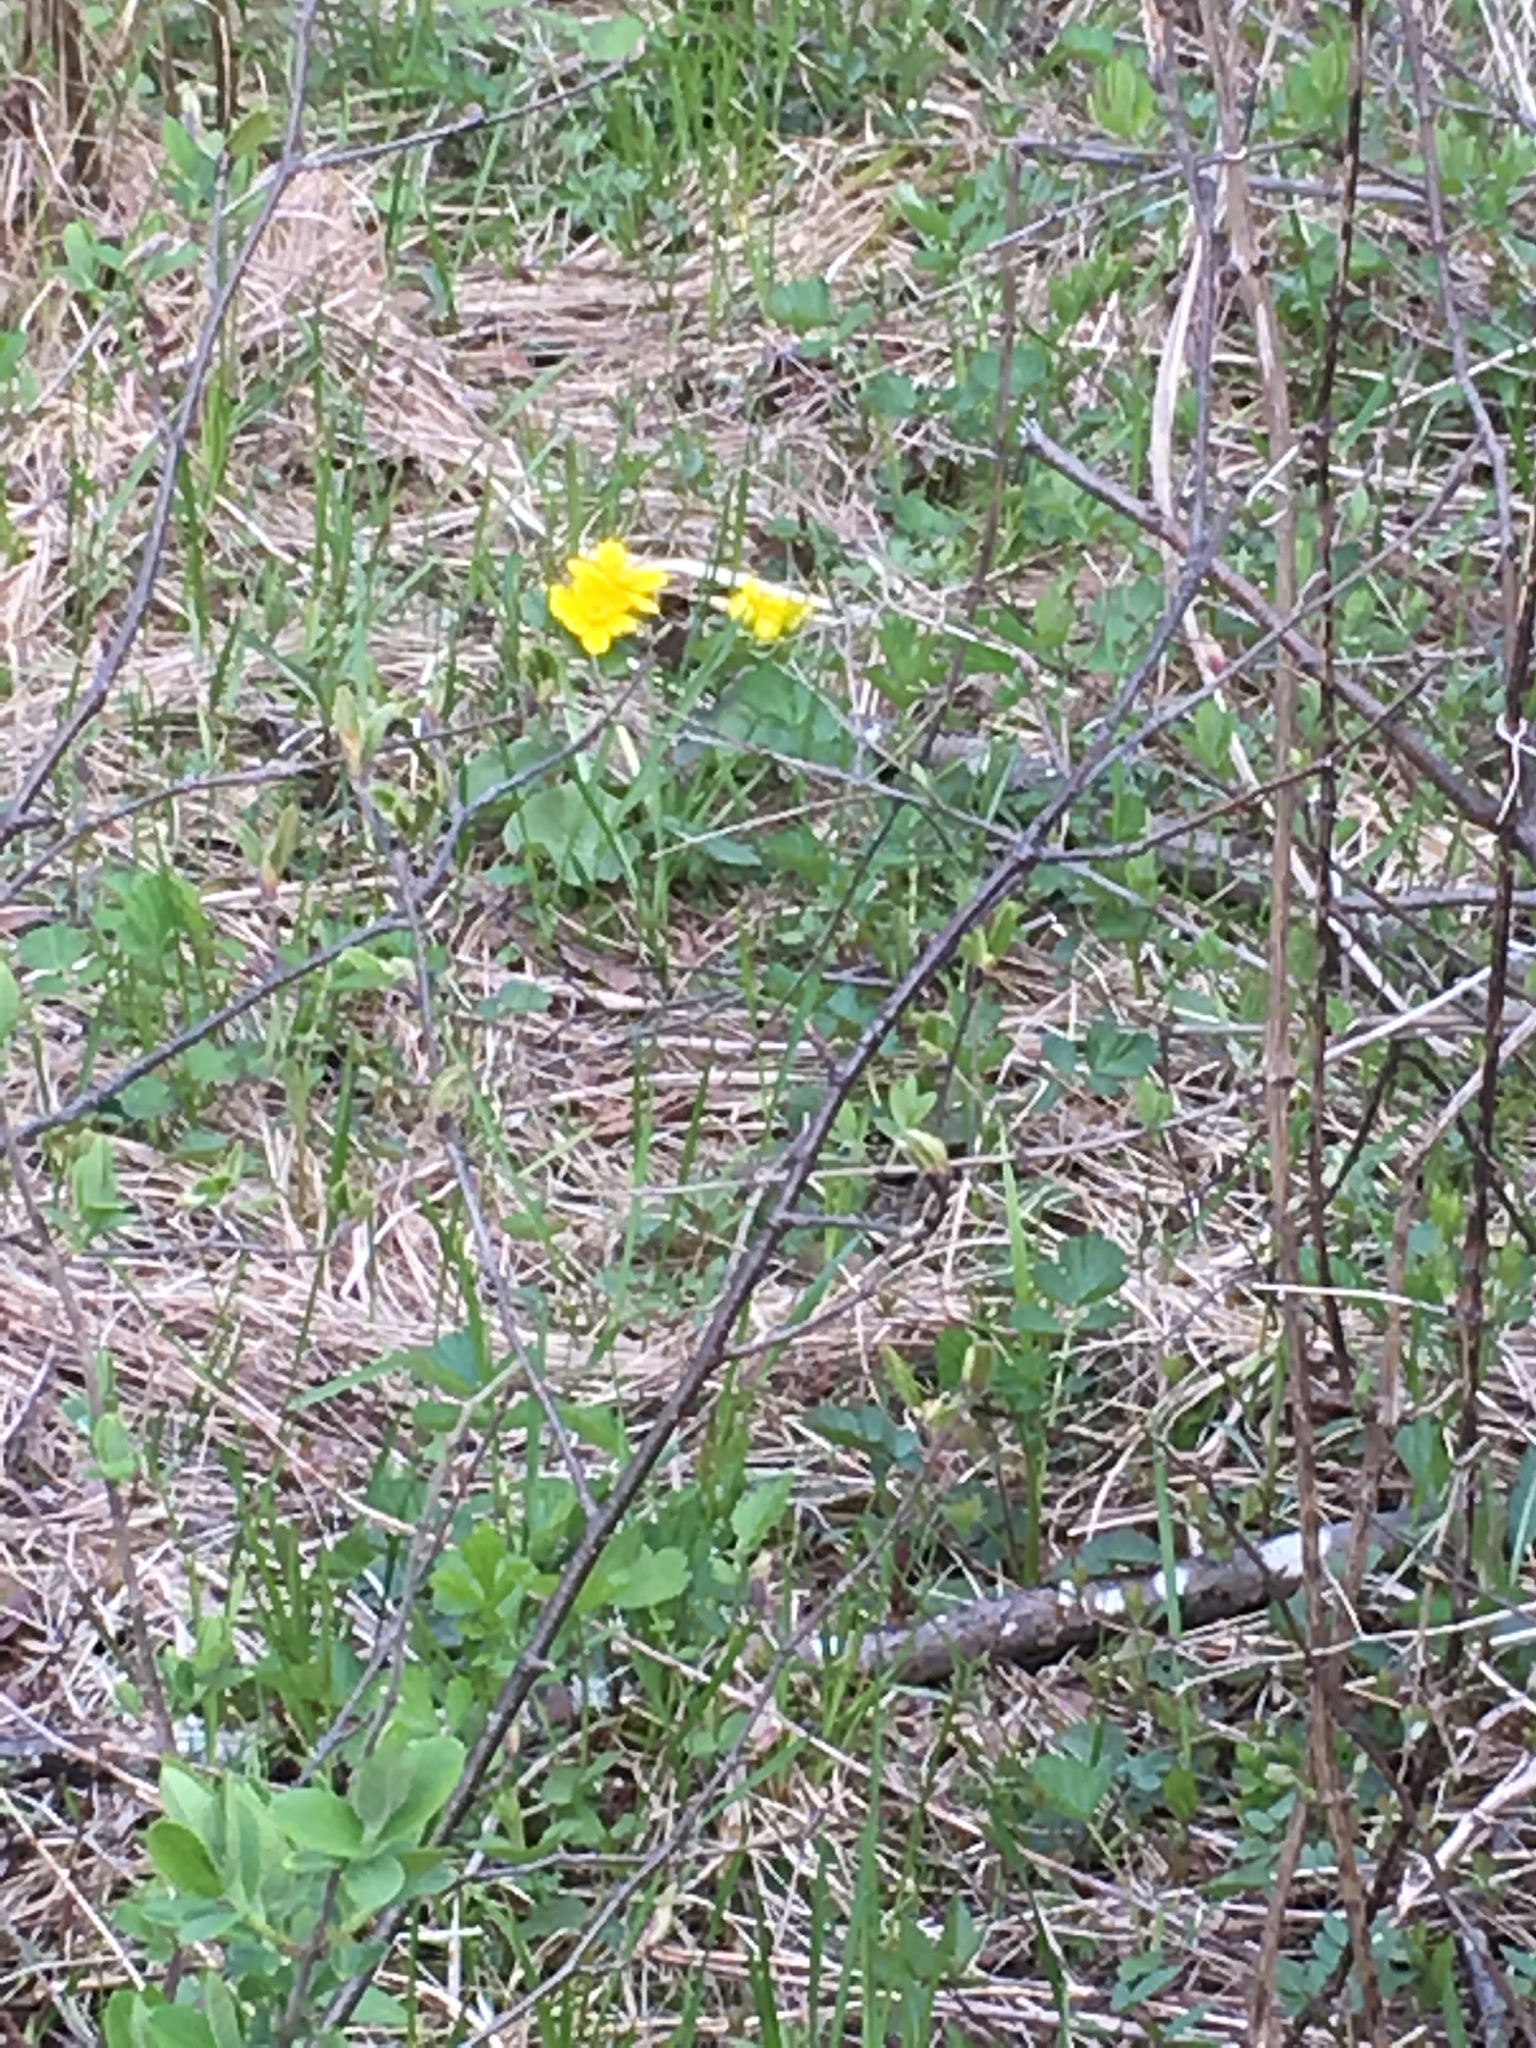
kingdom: Plantae
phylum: Tracheophyta
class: Magnoliopsida
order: Ranunculales
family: Ranunculaceae
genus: Caltha
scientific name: Caltha palustris
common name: Marsh marigold
